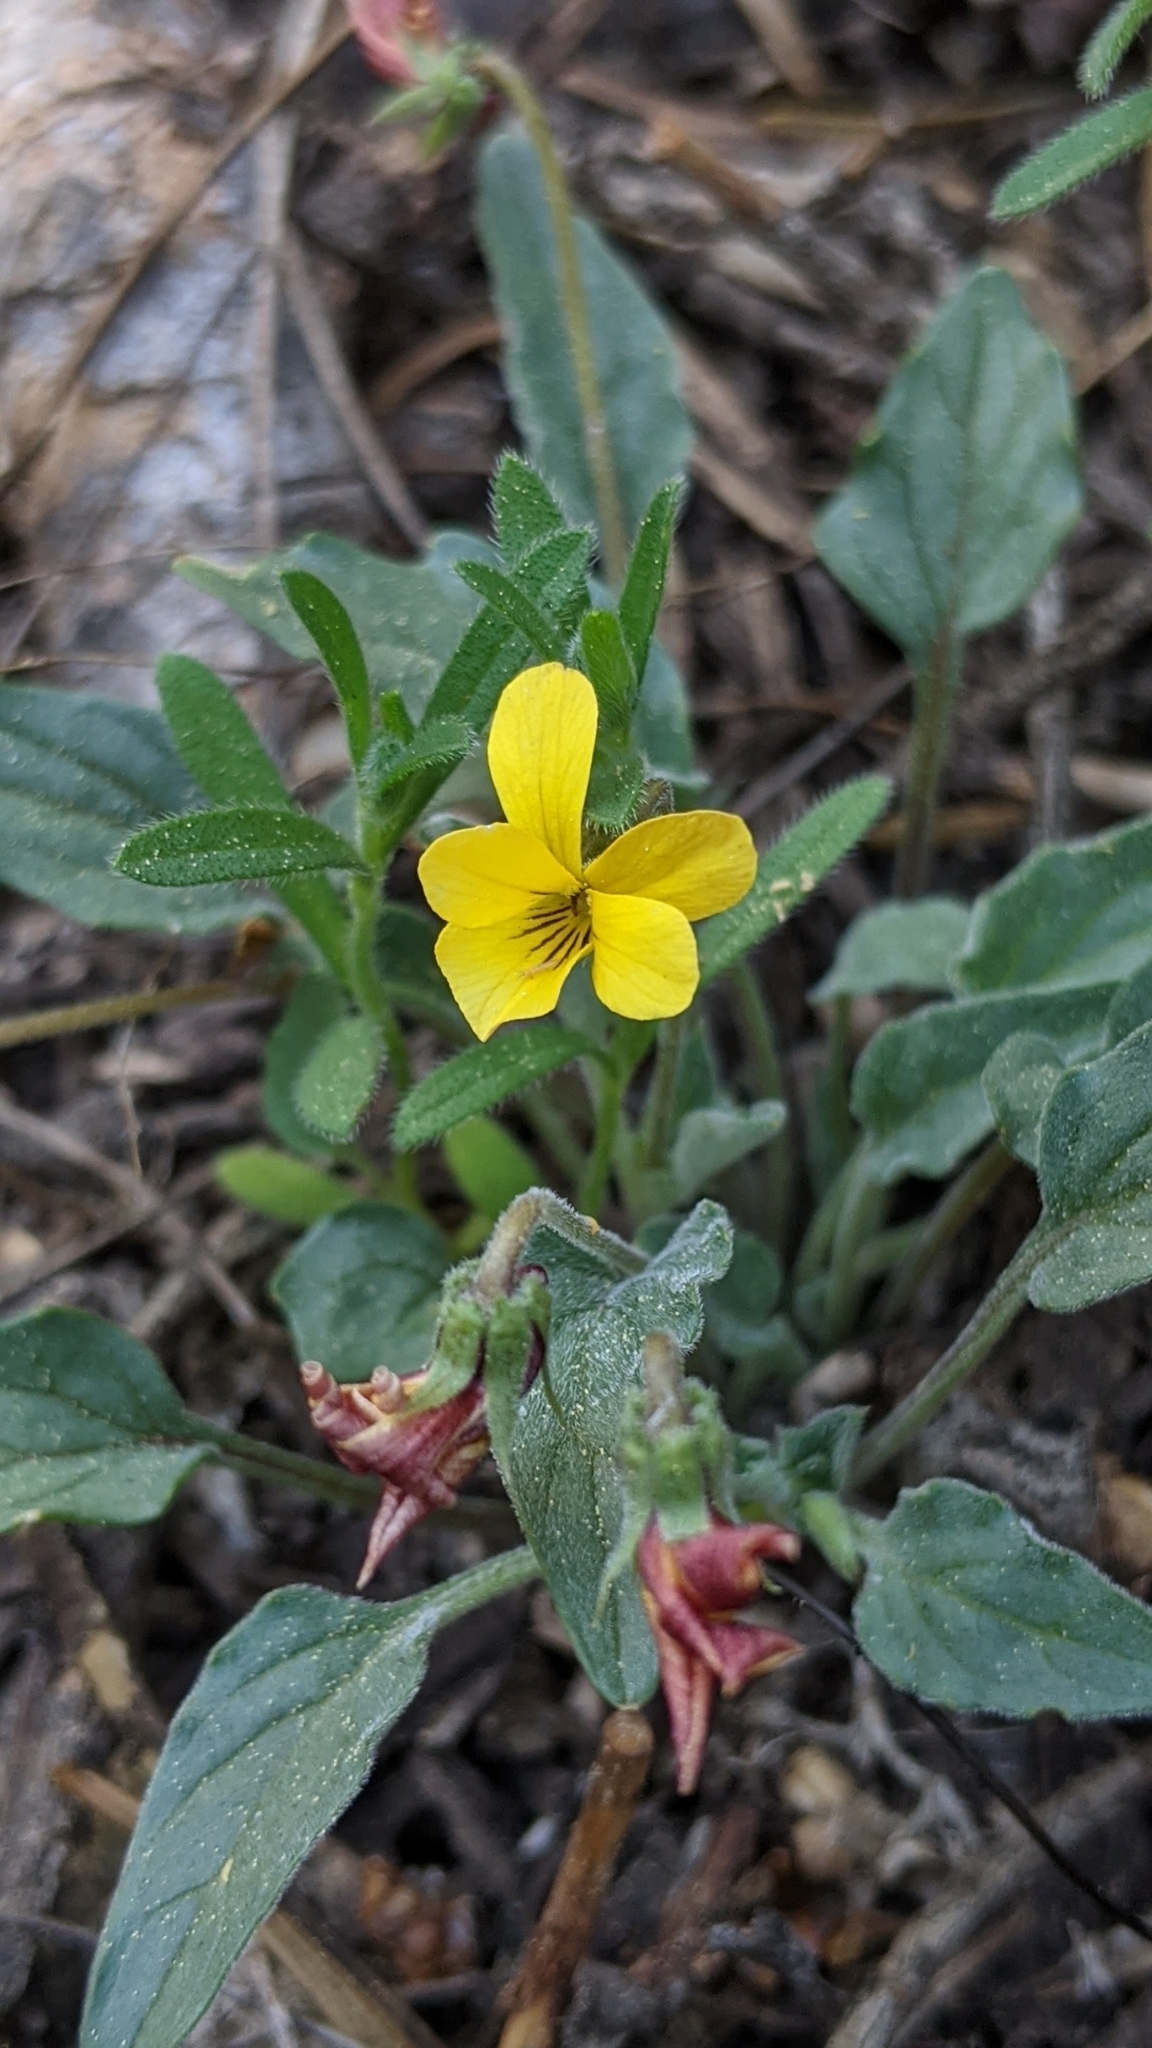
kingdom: Plantae
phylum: Tracheophyta
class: Magnoliopsida
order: Malpighiales
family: Violaceae
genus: Viola
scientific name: Viola pinetorum
